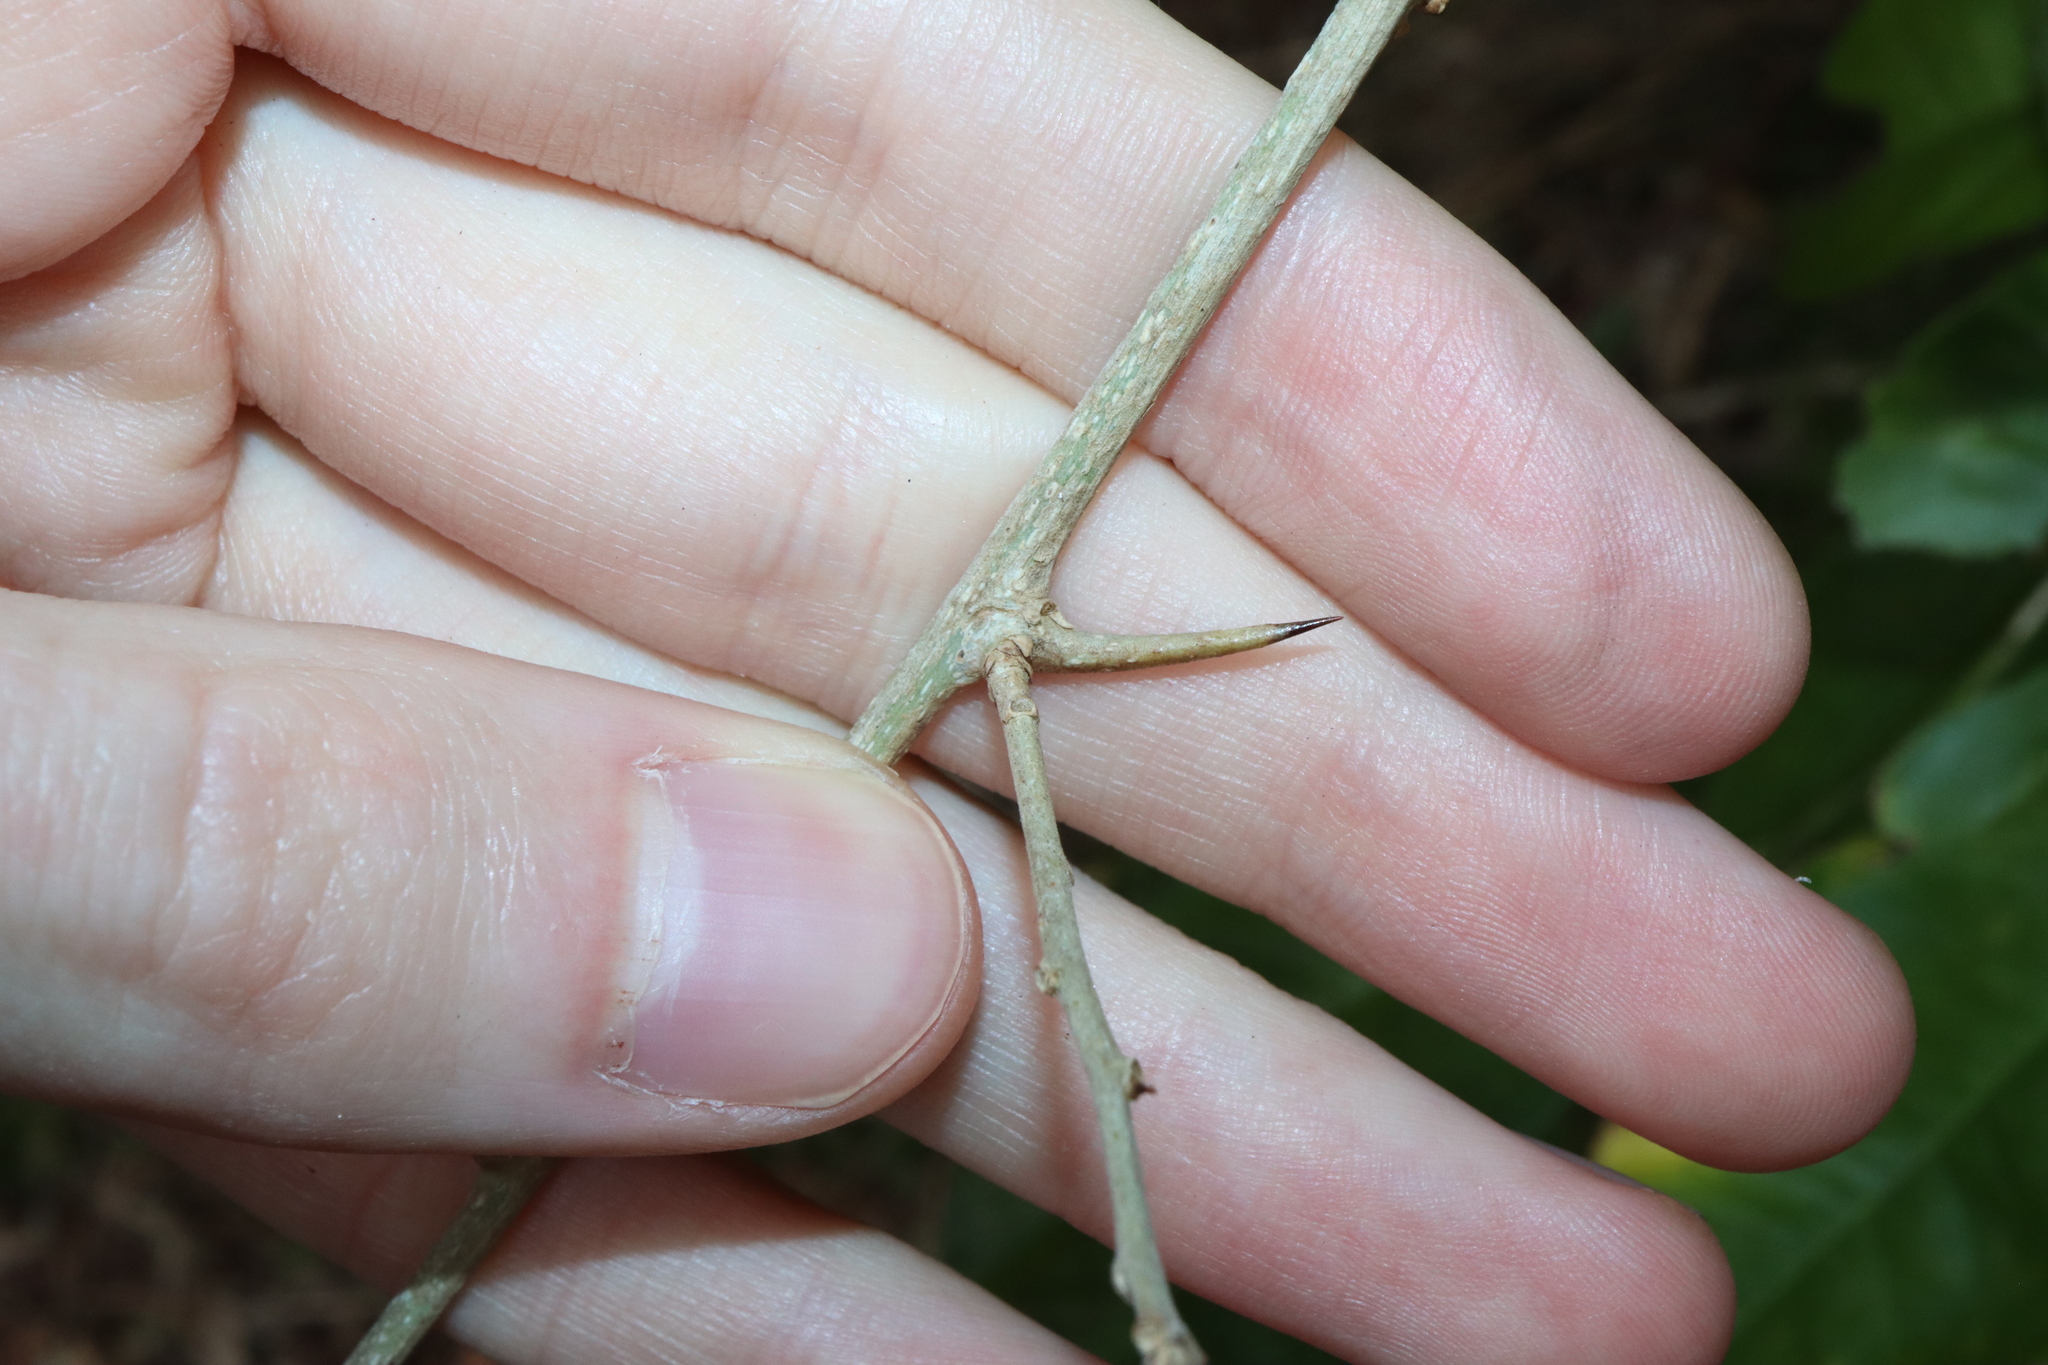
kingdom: Plantae
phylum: Tracheophyta
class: Magnoliopsida
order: Rosales
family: Moraceae
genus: Maclura
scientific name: Maclura cochinchinensis
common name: Cockspurthorn
